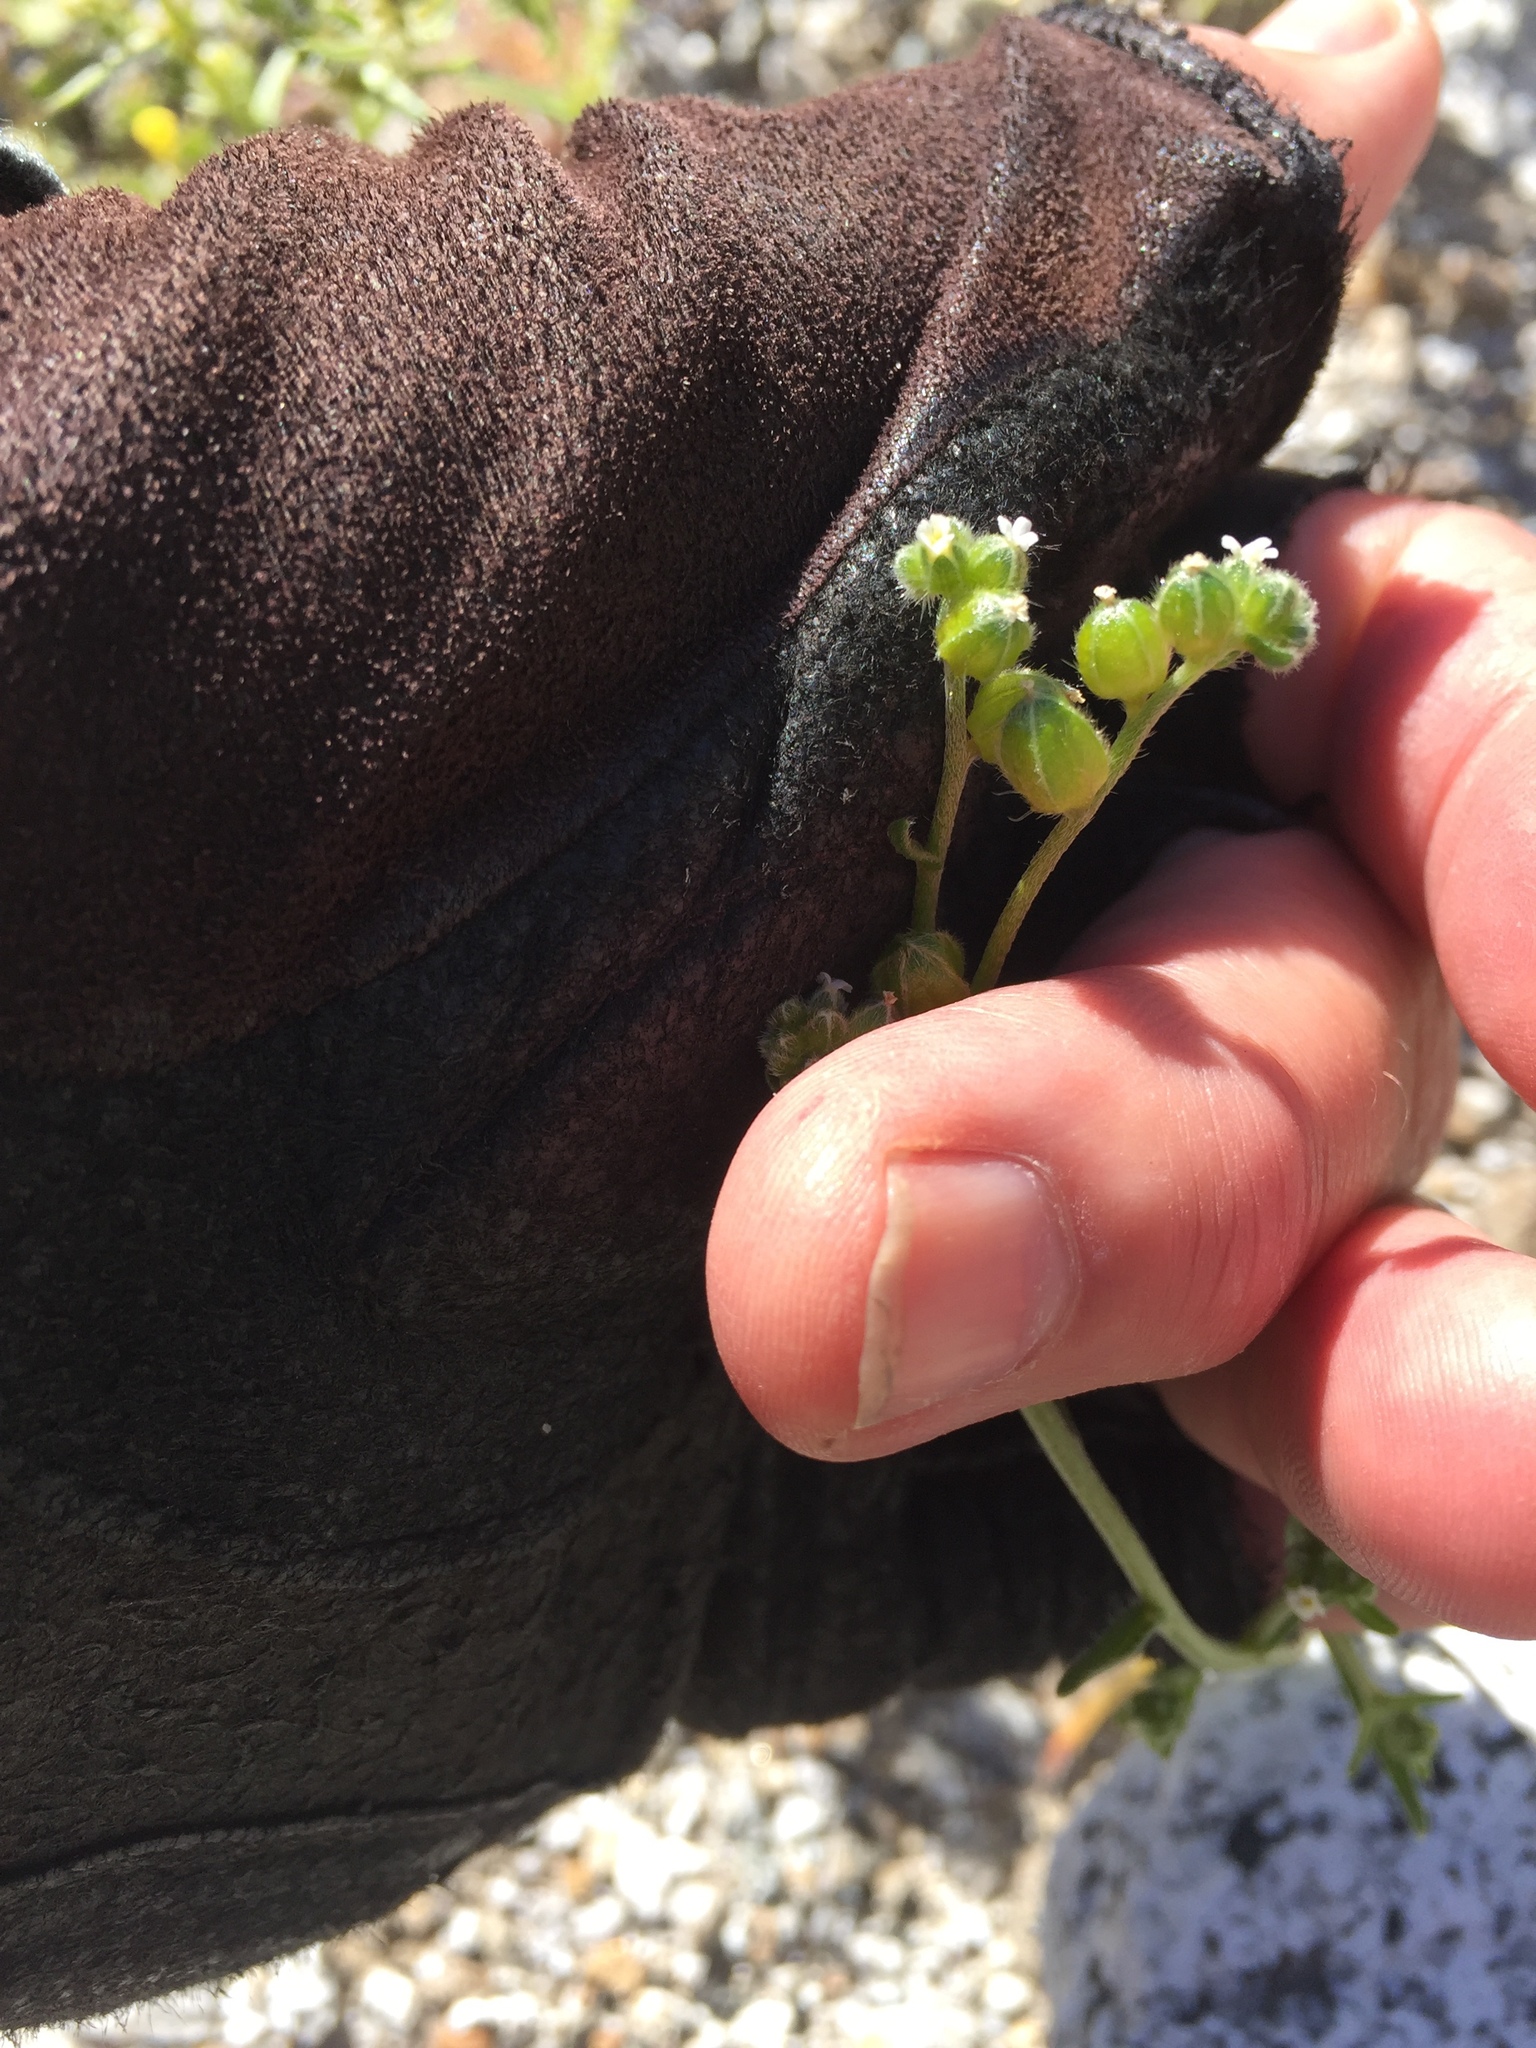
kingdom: Plantae
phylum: Tracheophyta
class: Magnoliopsida
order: Boraginales
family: Boraginaceae
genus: Cryptantha
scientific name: Cryptantha pterocarya
